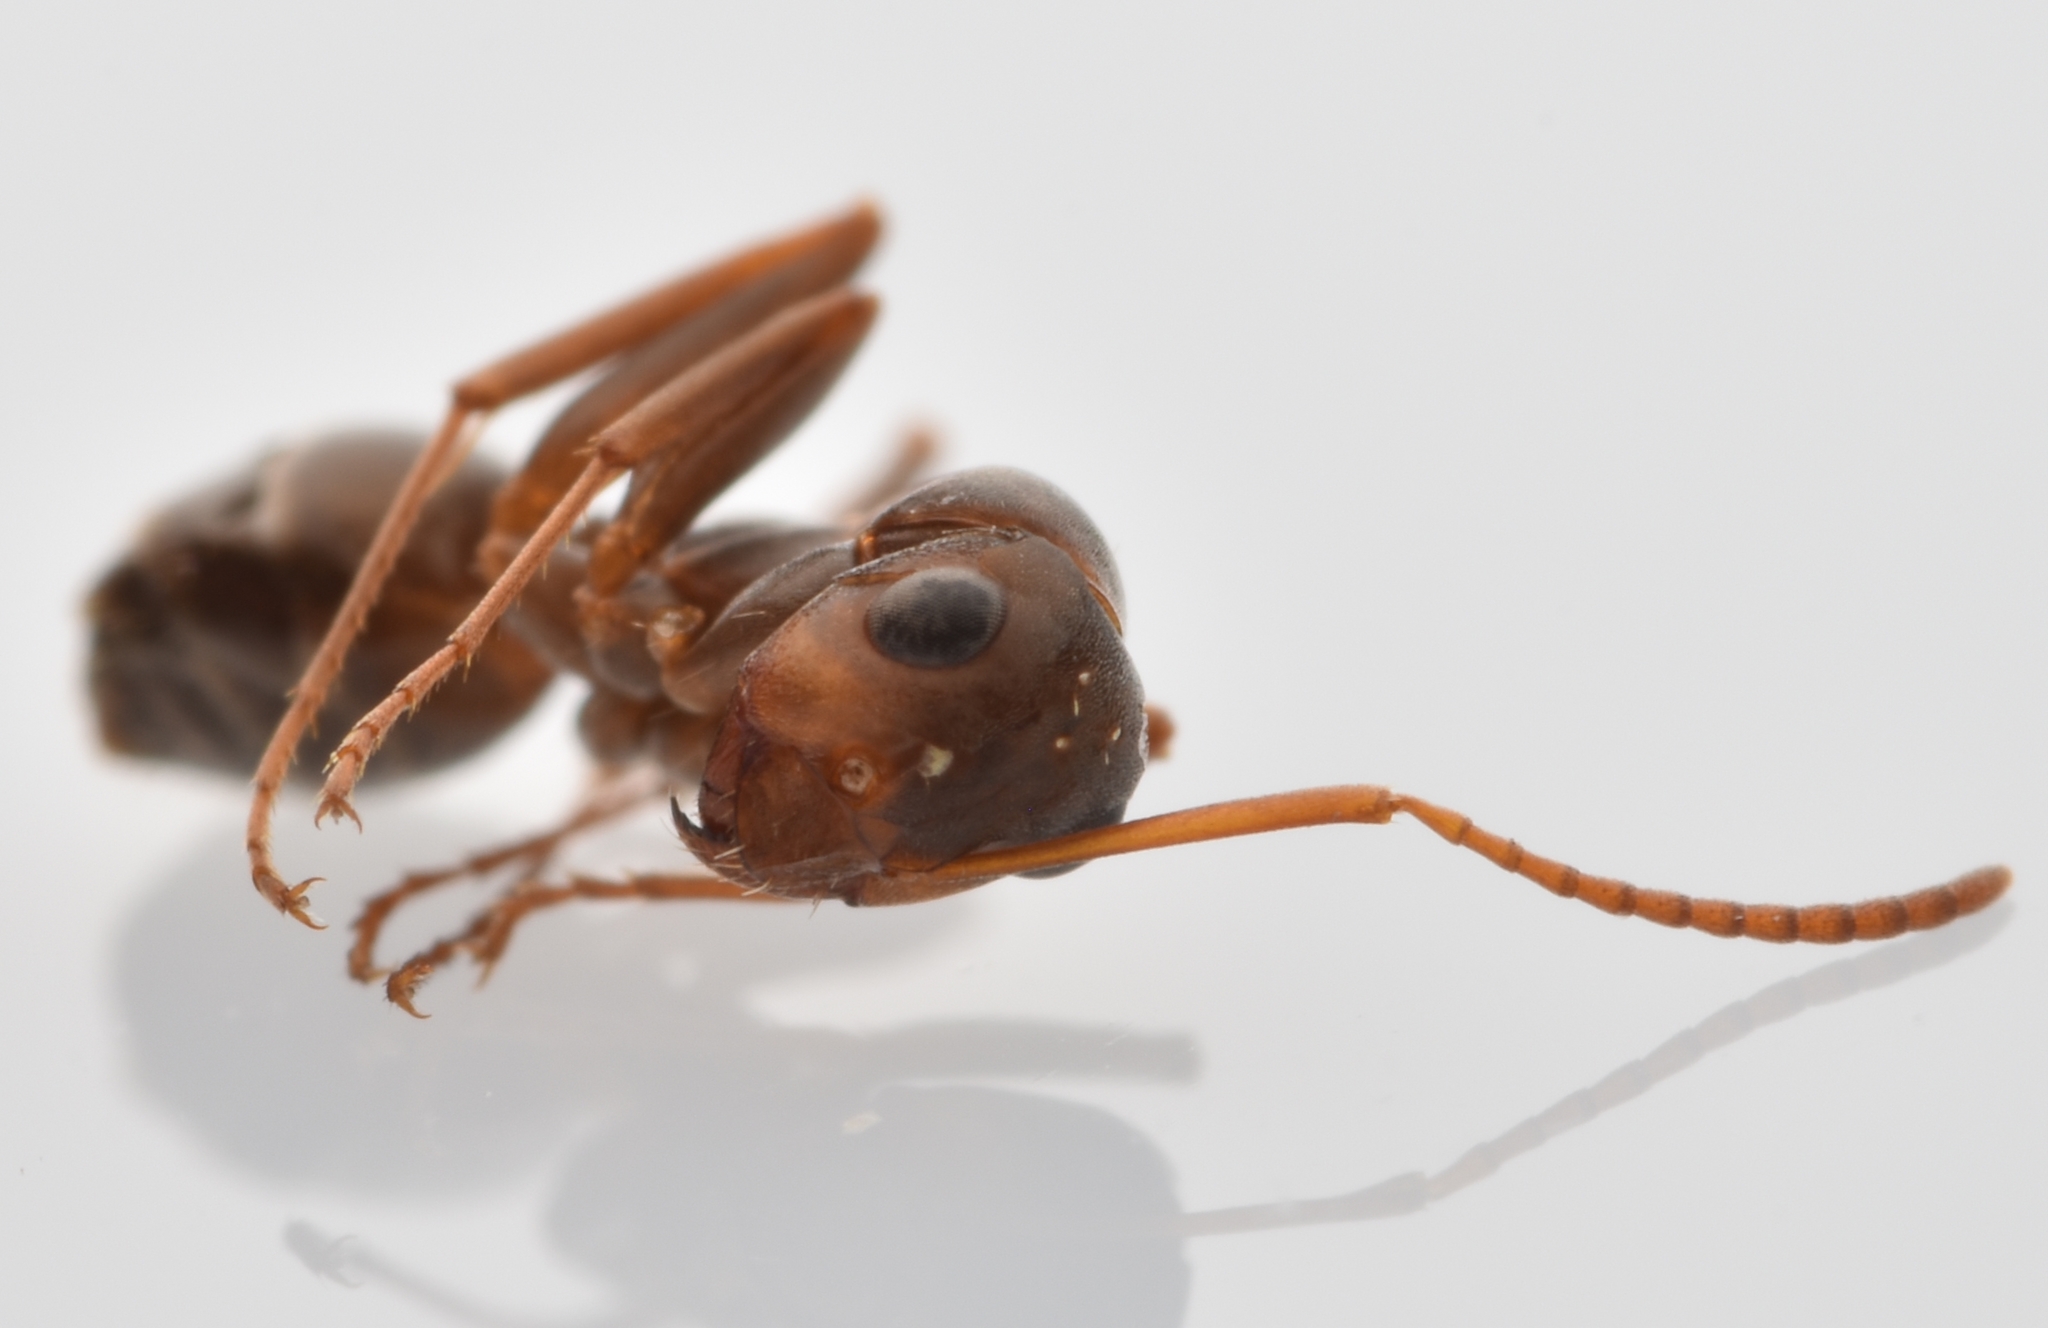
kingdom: Animalia
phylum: Arthropoda
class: Insecta
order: Hymenoptera
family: Formicidae
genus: Formica
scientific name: Formica gnava
